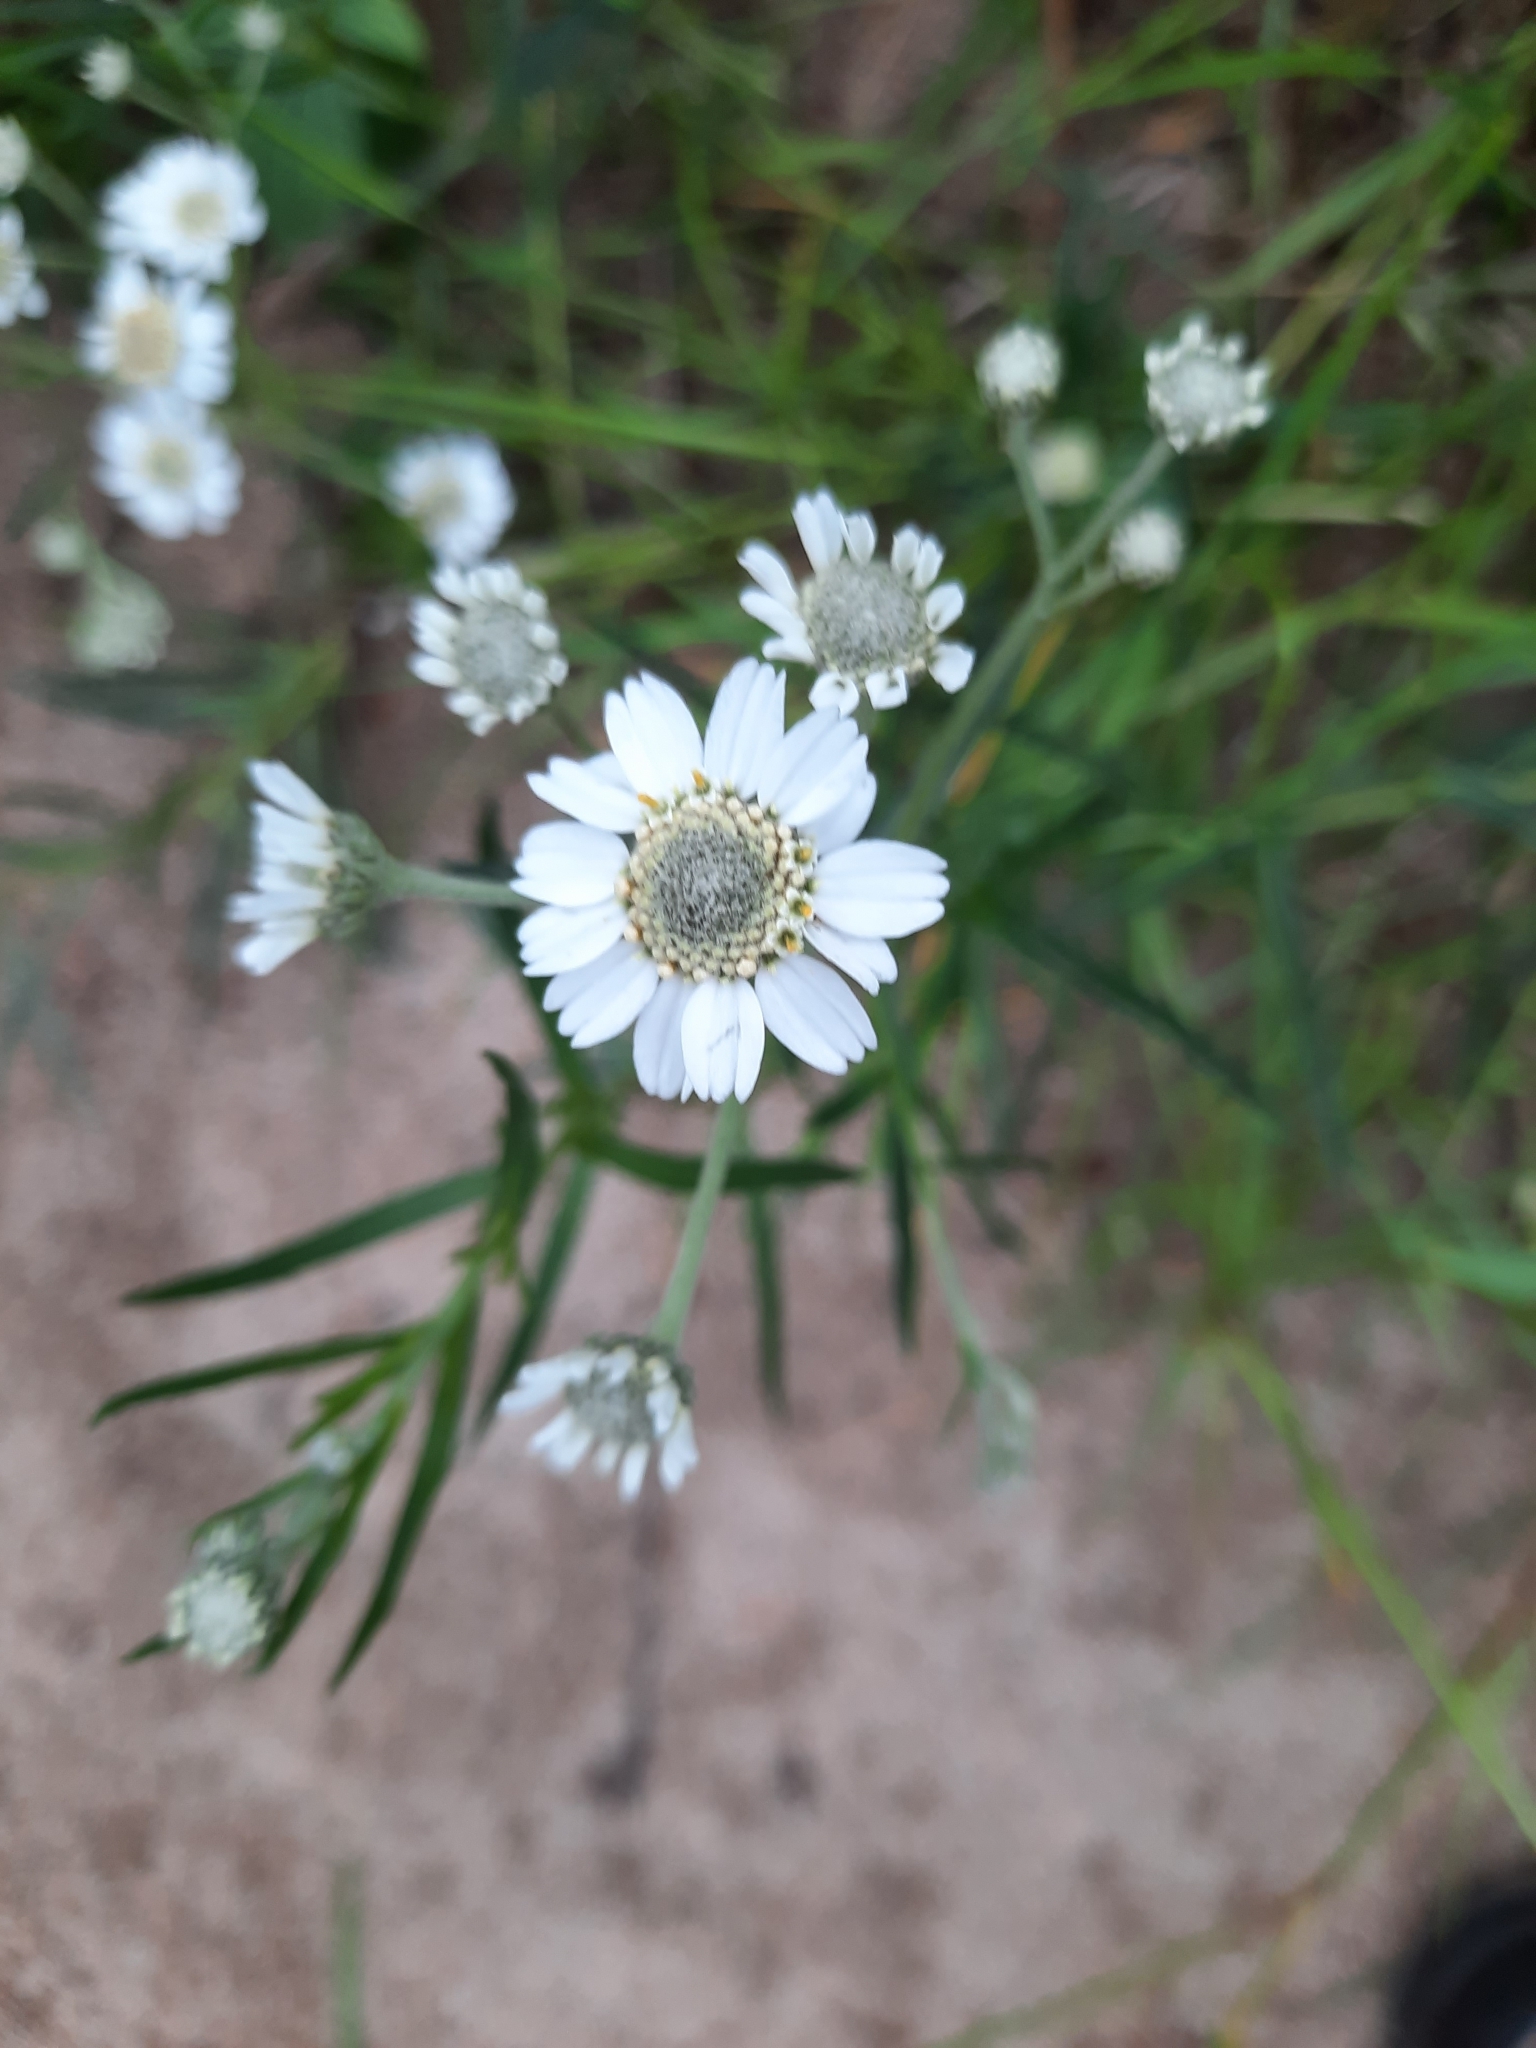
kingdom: Plantae
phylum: Tracheophyta
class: Magnoliopsida
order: Asterales
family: Asteraceae
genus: Achillea
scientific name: Achillea ptarmica
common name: Sneezeweed
